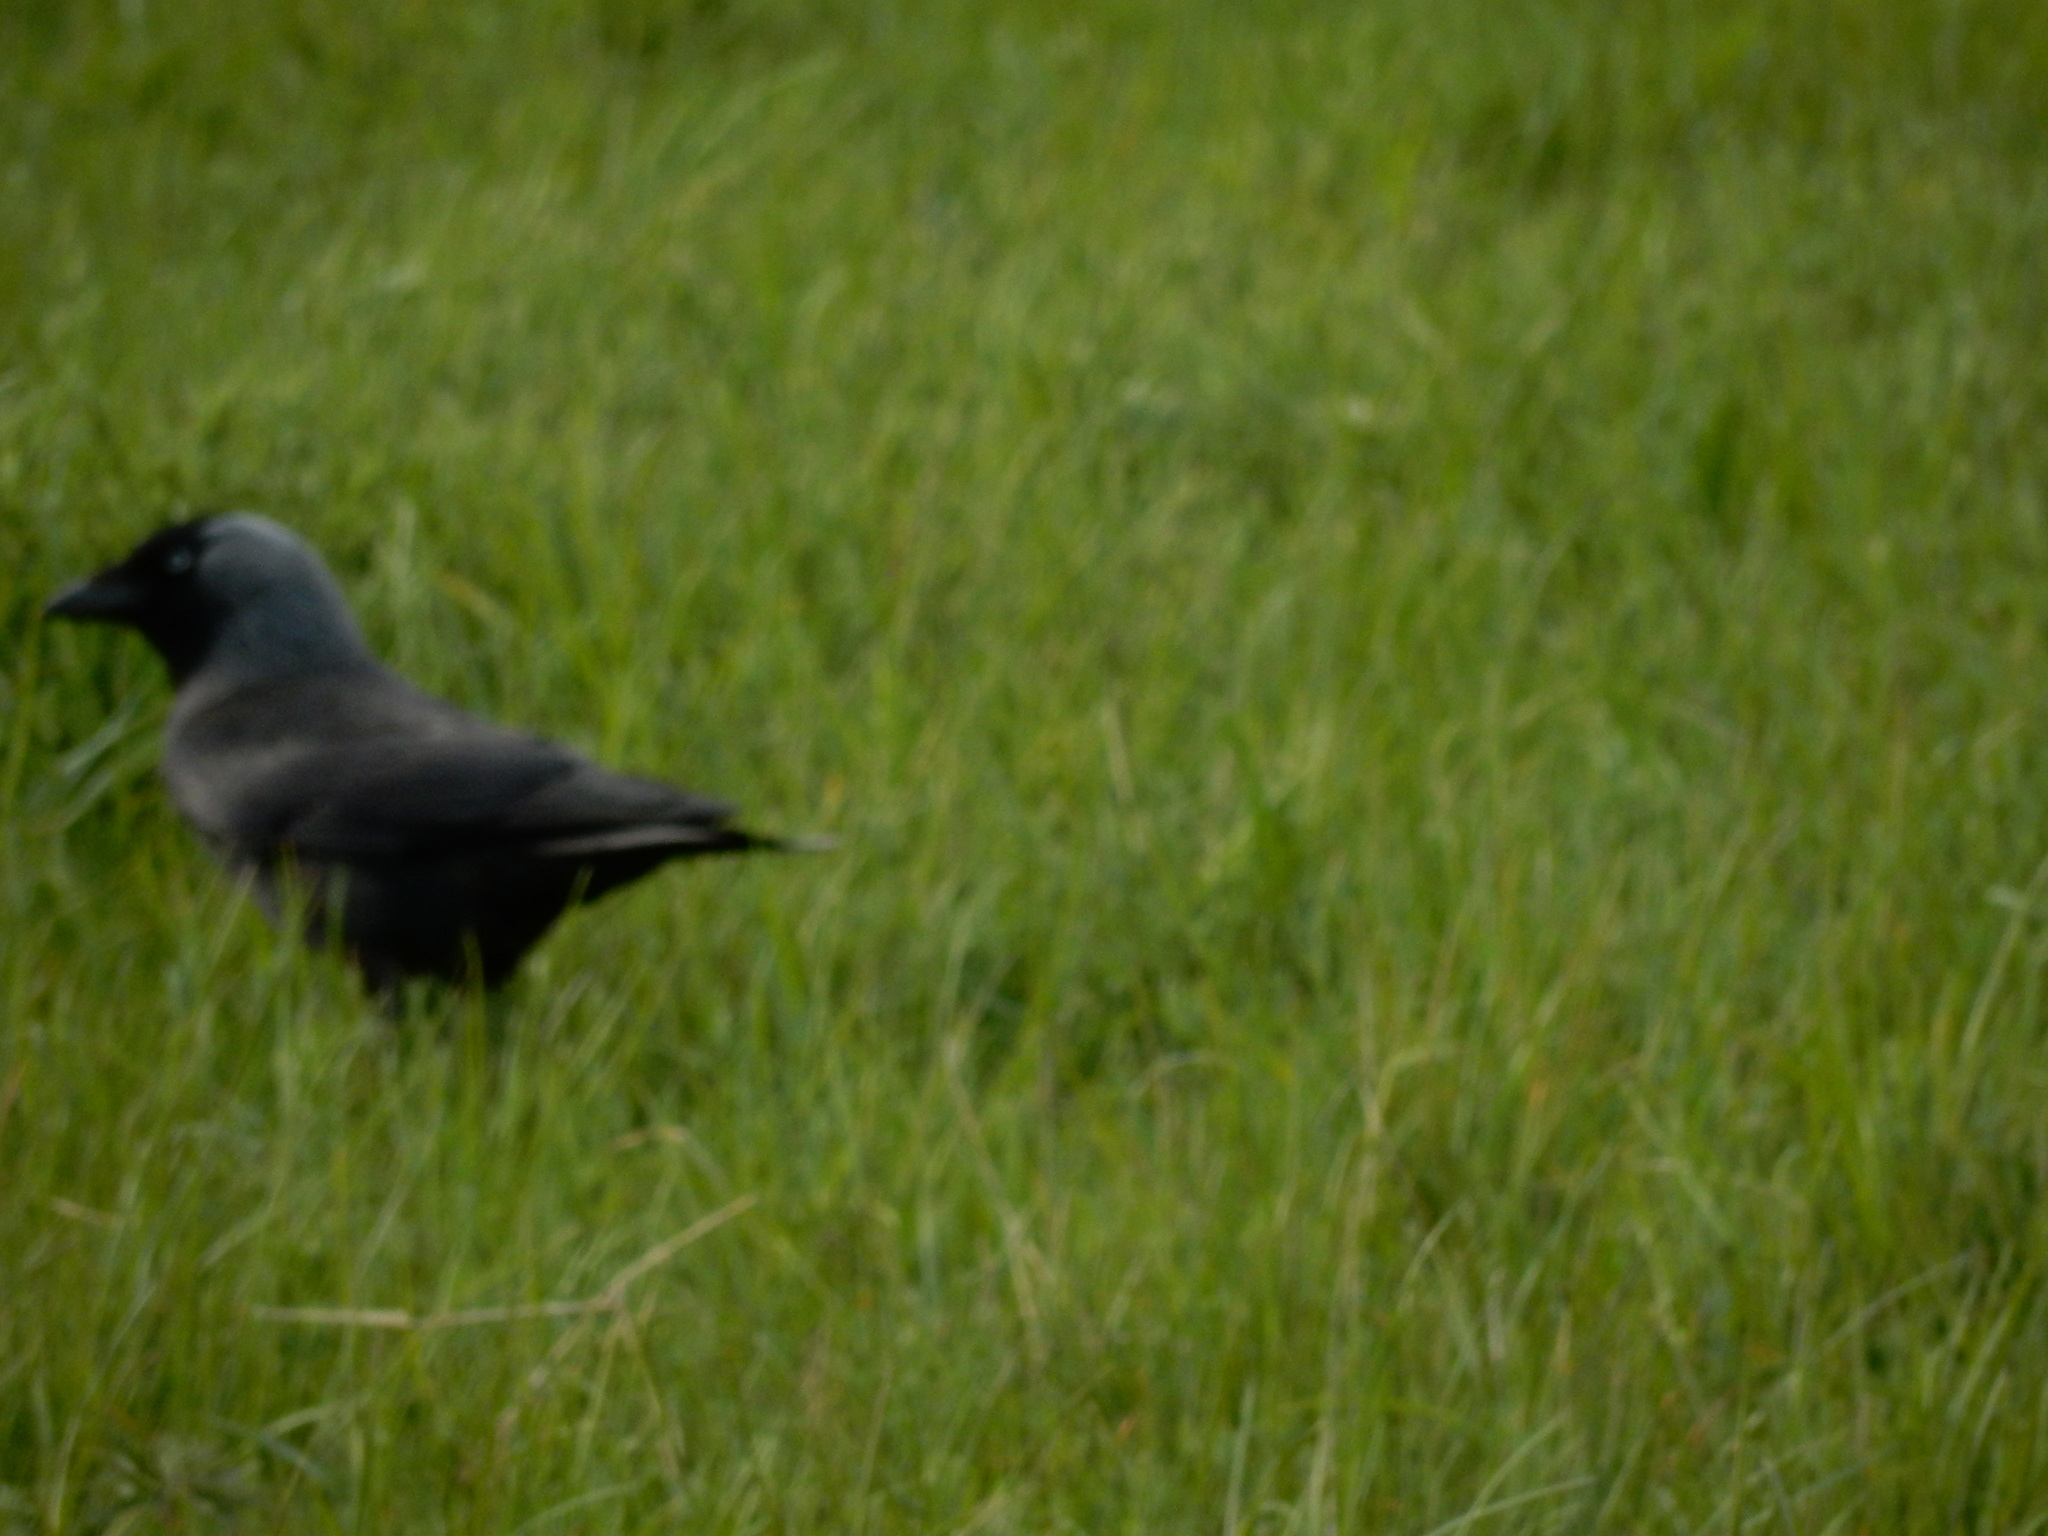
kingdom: Animalia
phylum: Chordata
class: Aves
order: Passeriformes
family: Corvidae
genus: Coloeus
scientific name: Coloeus monedula
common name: Western jackdaw
